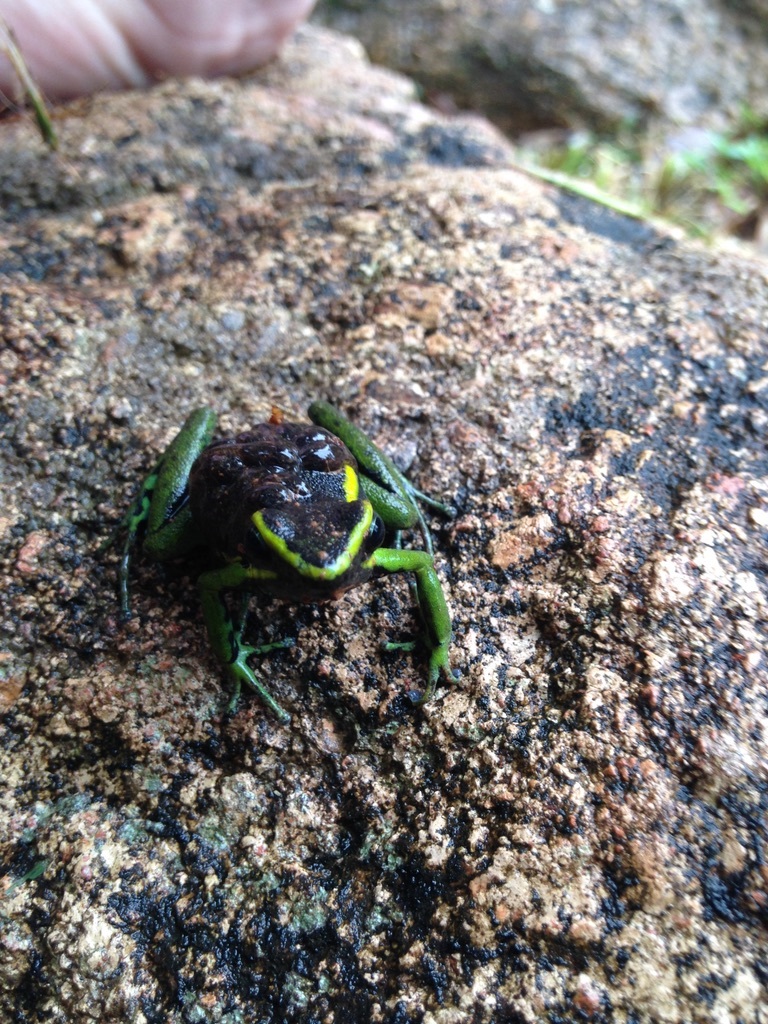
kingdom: Animalia
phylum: Chordata
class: Amphibia
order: Anura
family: Dendrobatidae
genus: Ameerega
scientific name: Ameerega trivittata
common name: Three-striped arrow-poison frog
